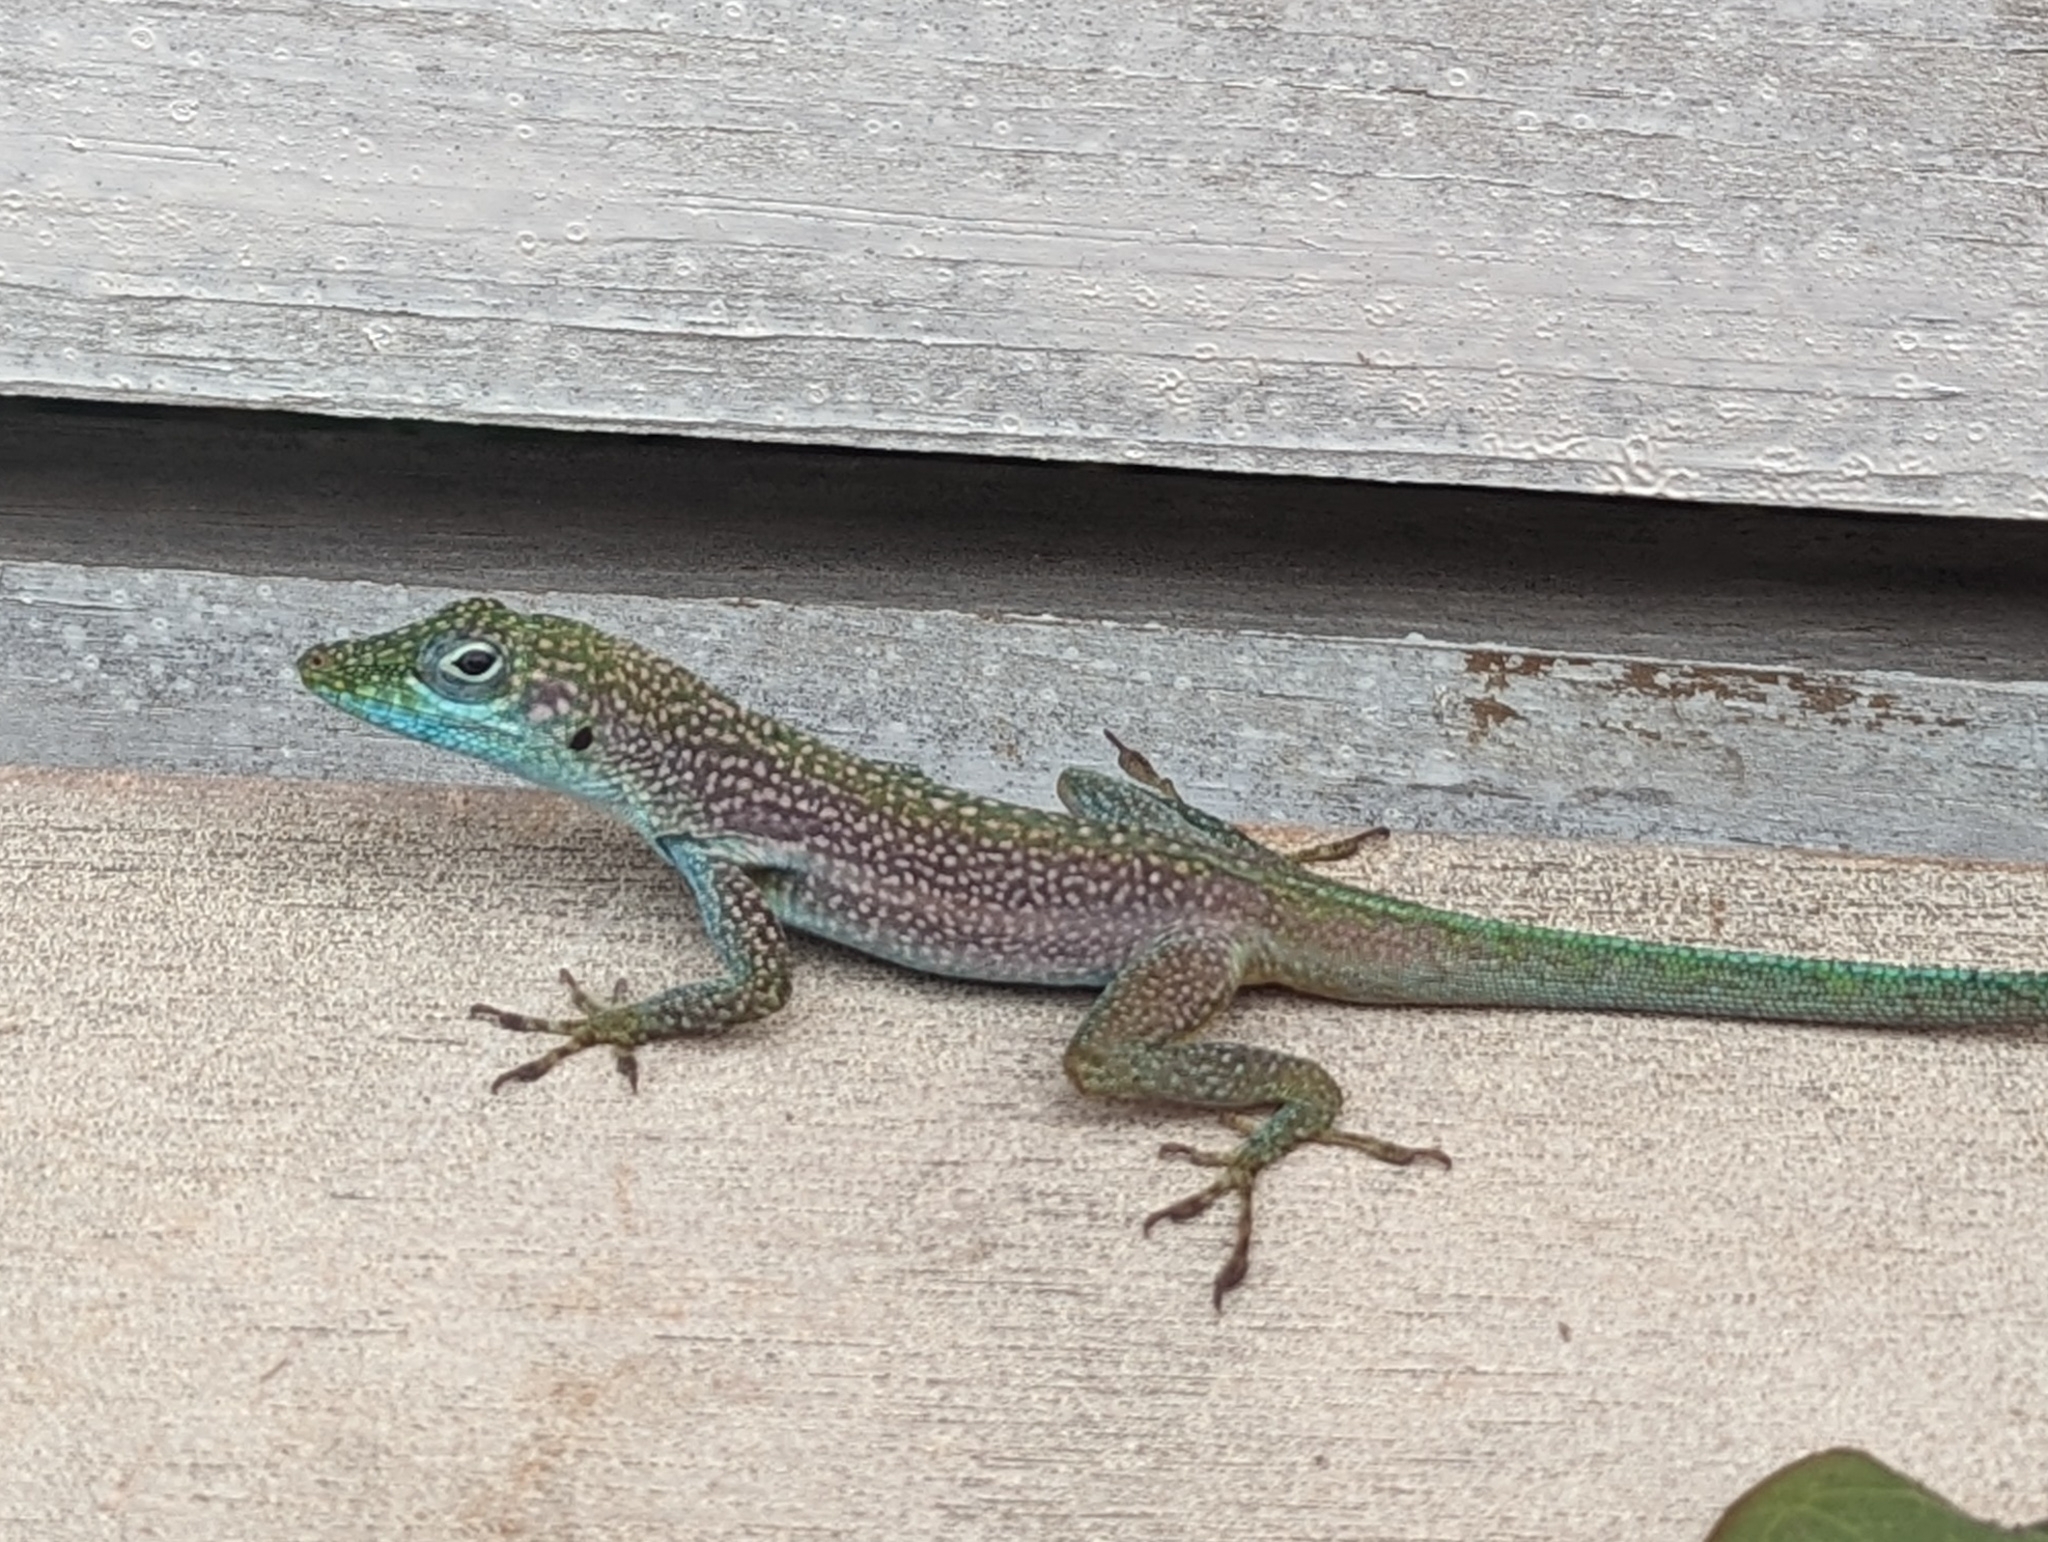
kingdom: Animalia
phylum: Chordata
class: Squamata
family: Dactyloidae
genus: Anolis
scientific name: Anolis conspersus
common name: Grand cayman anole
